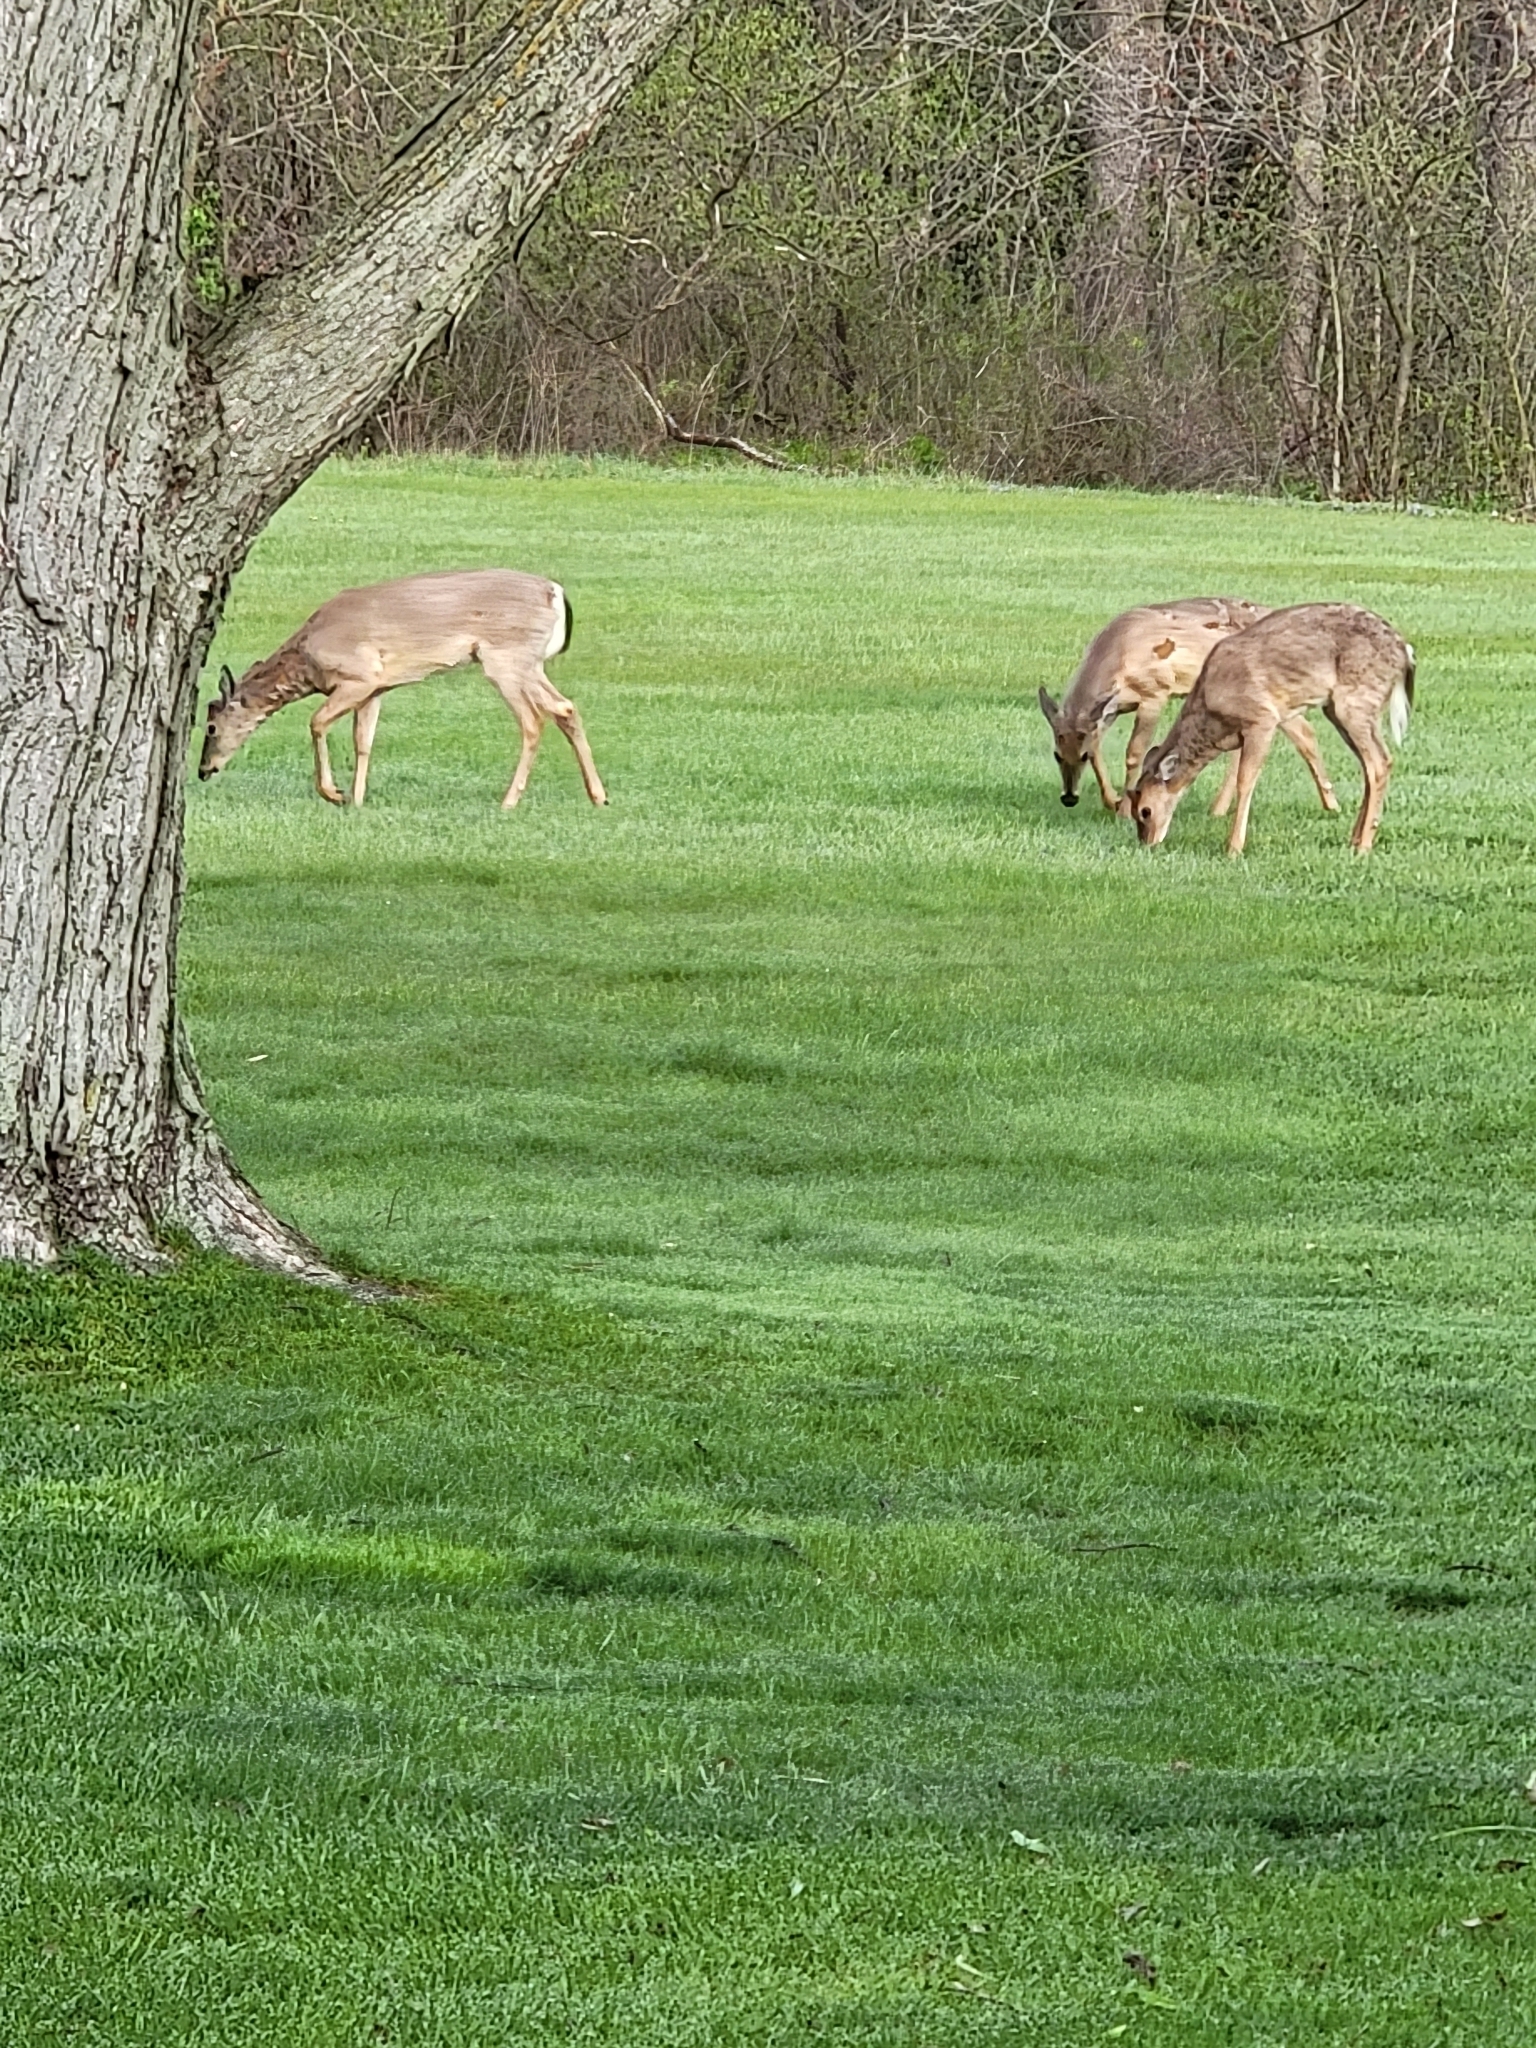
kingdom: Animalia
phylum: Chordata
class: Mammalia
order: Artiodactyla
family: Cervidae
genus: Odocoileus
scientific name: Odocoileus virginianus
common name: White-tailed deer
